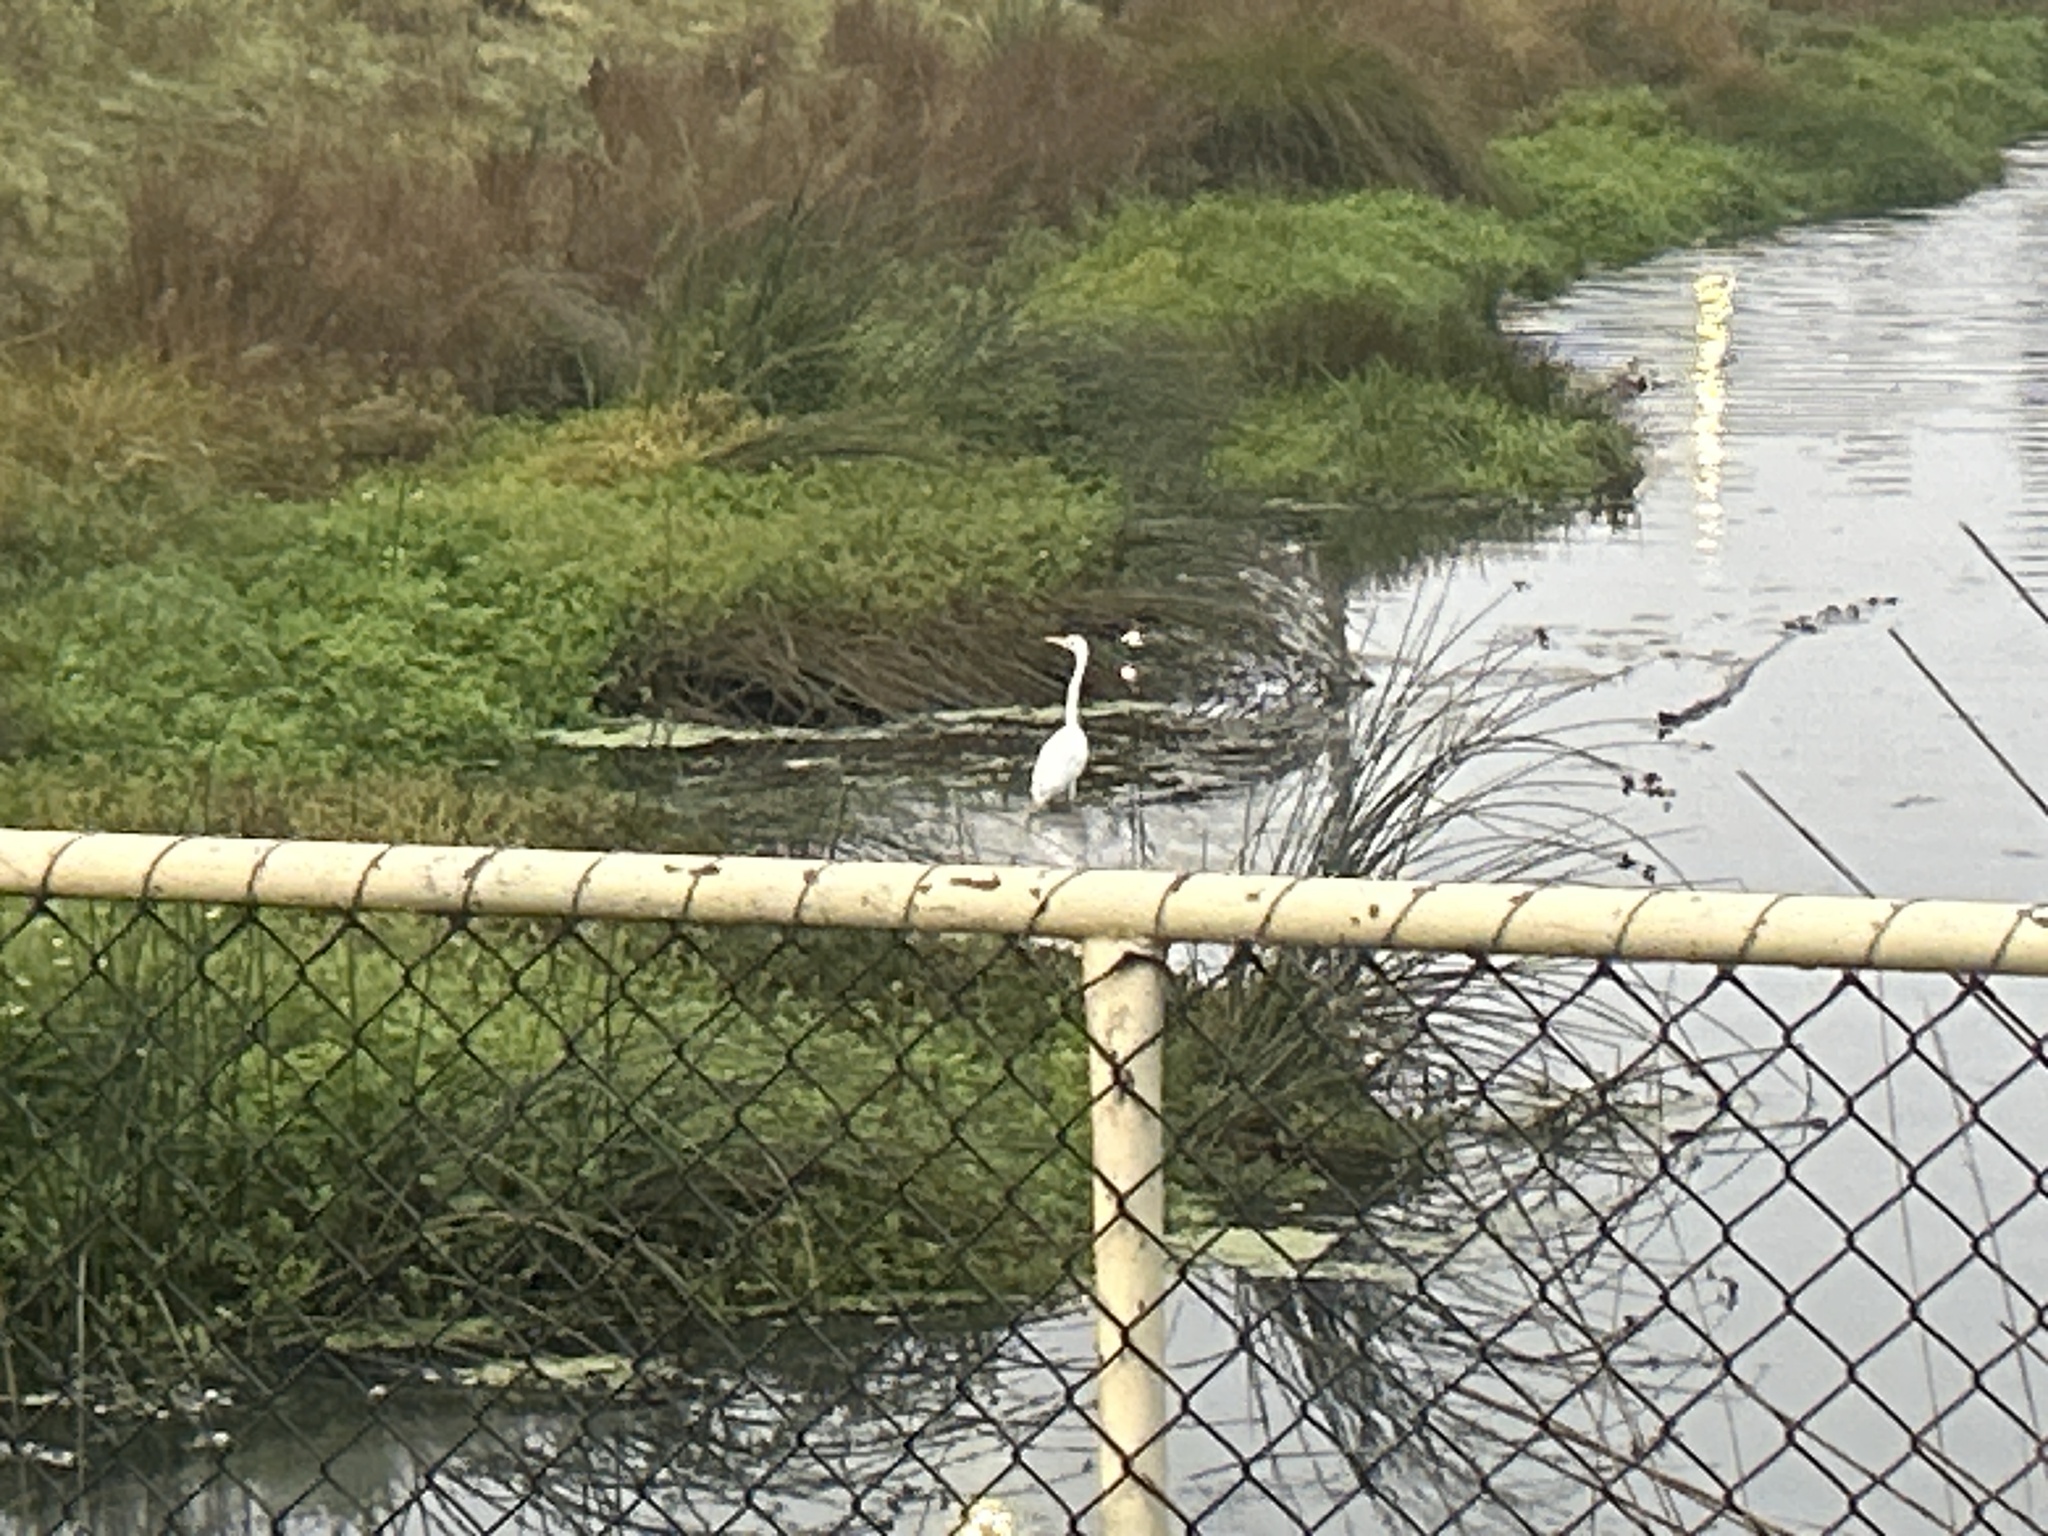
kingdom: Animalia
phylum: Chordata
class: Aves
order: Pelecaniformes
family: Ardeidae
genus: Ardea
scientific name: Ardea modesta
